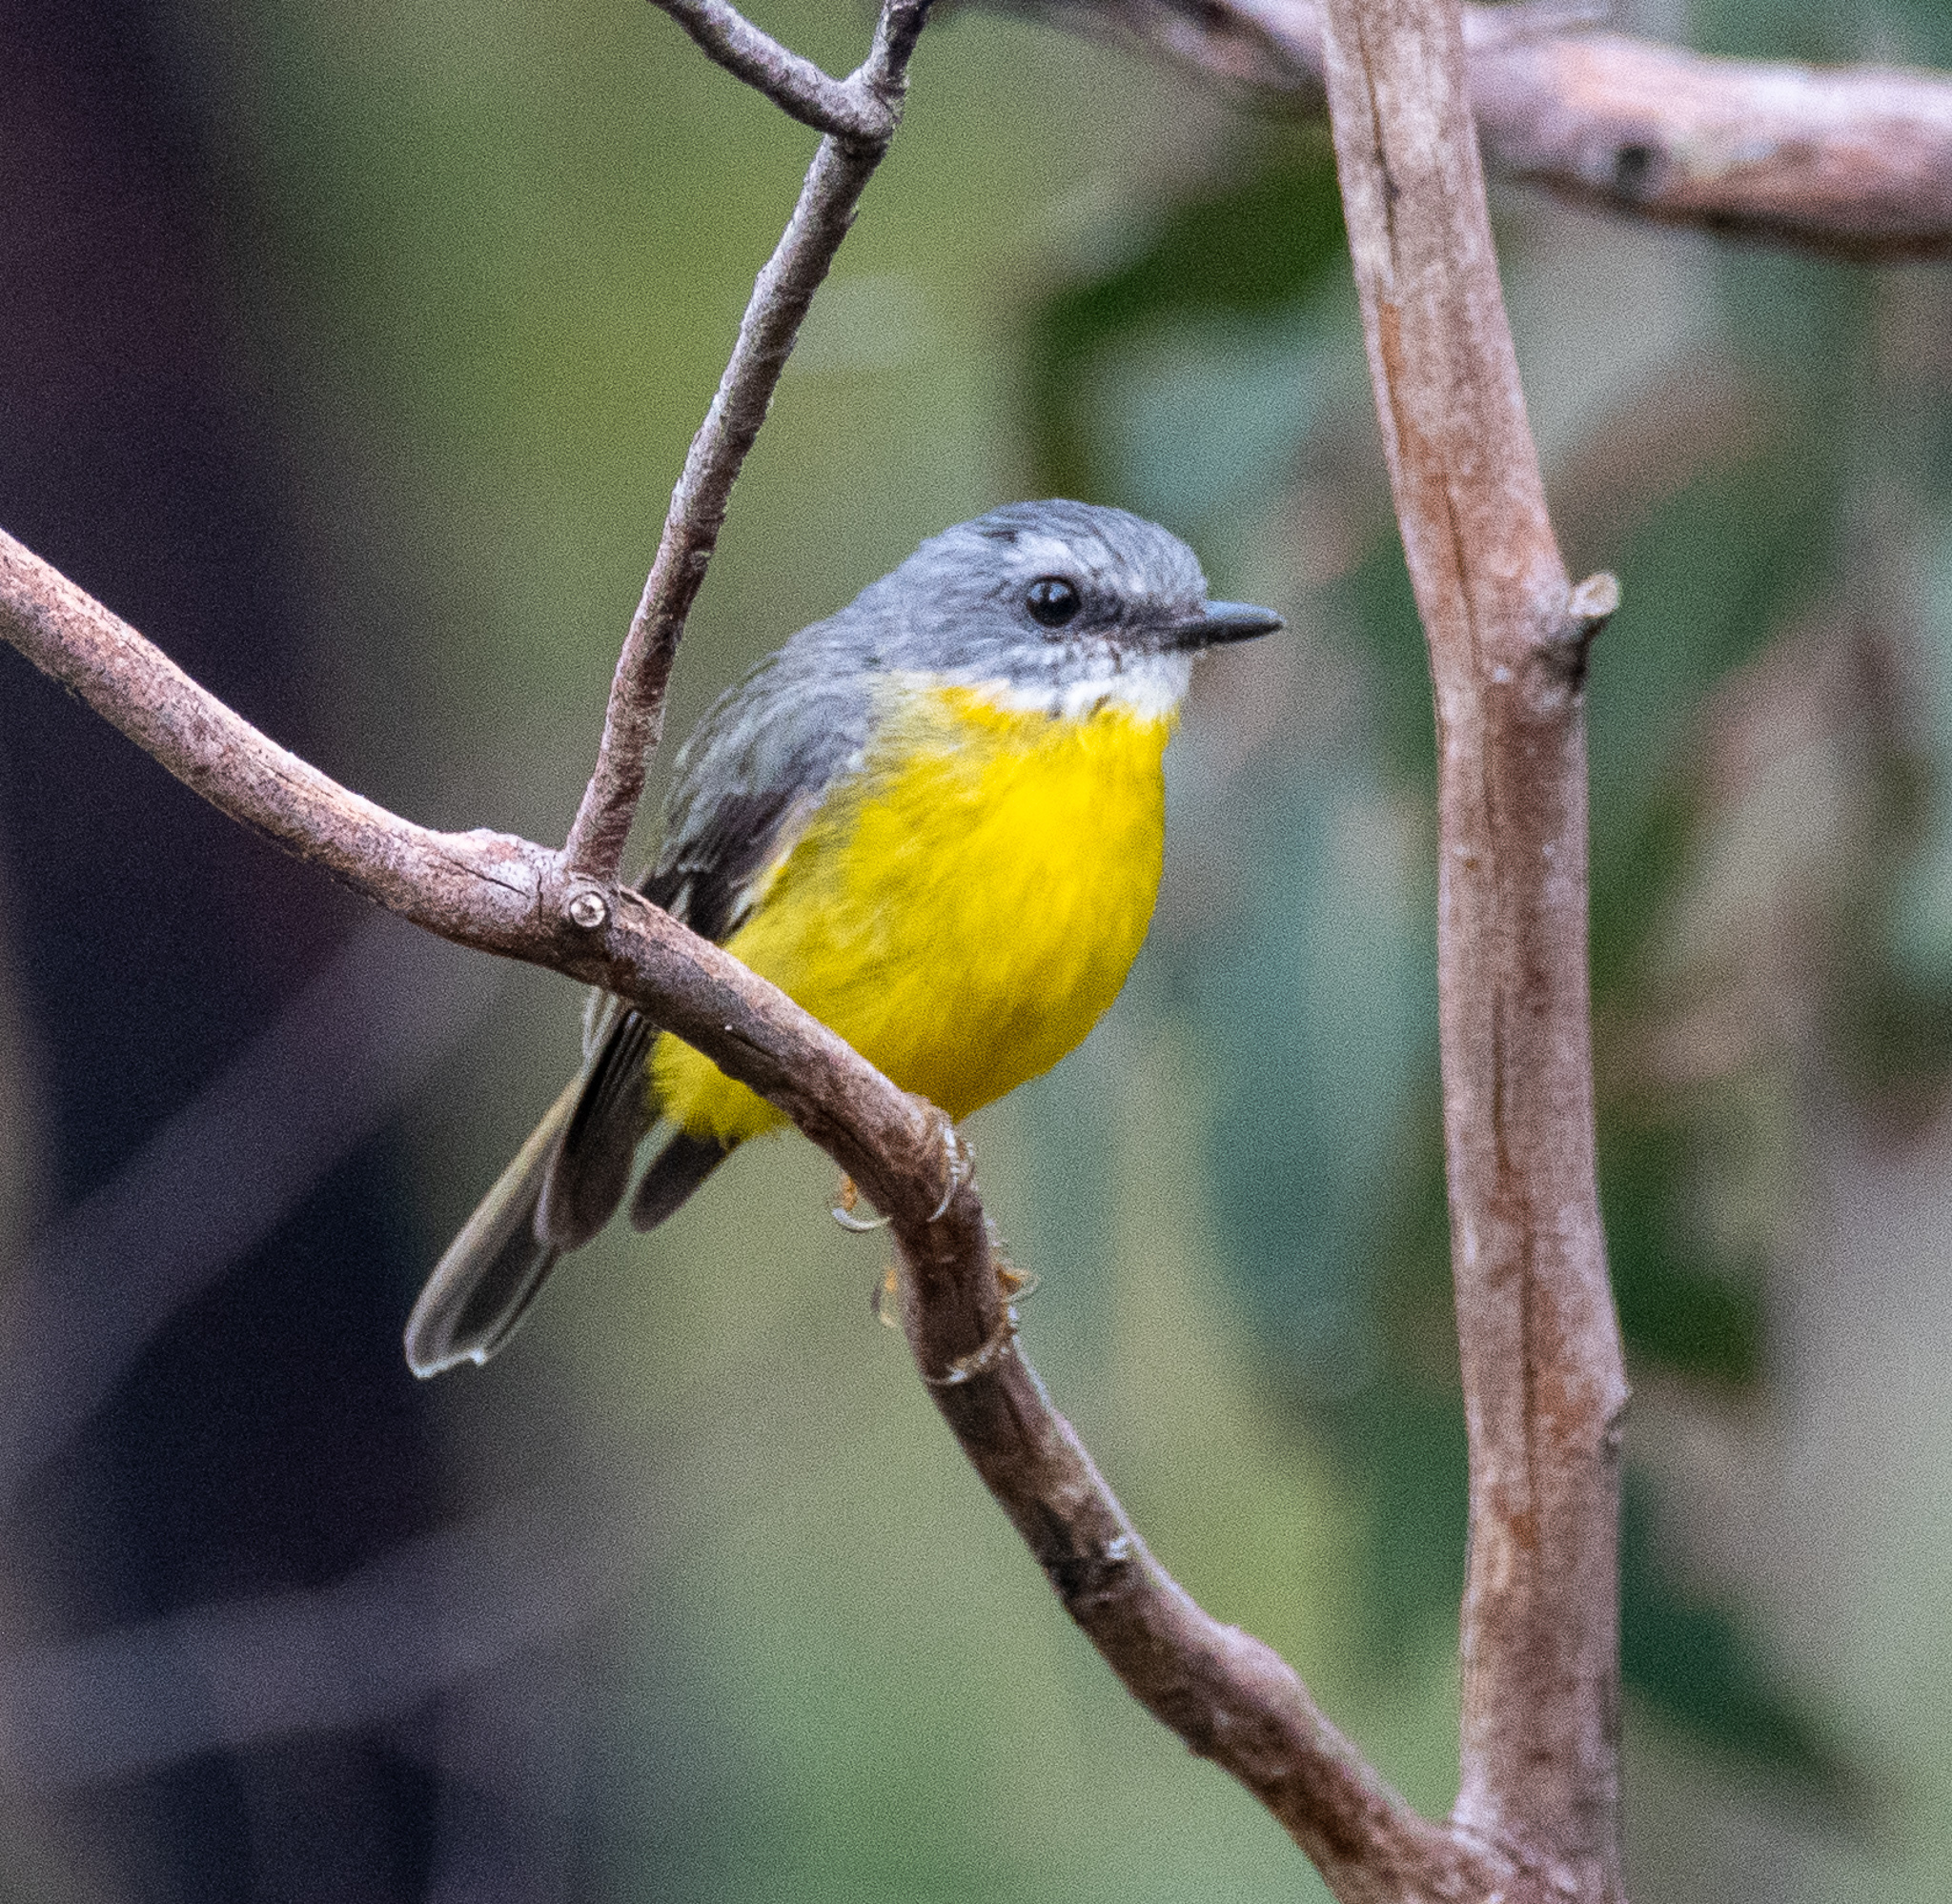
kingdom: Animalia
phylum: Chordata
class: Aves
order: Passeriformes
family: Petroicidae
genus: Eopsaltria
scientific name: Eopsaltria australis
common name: Eastern yellow robin
